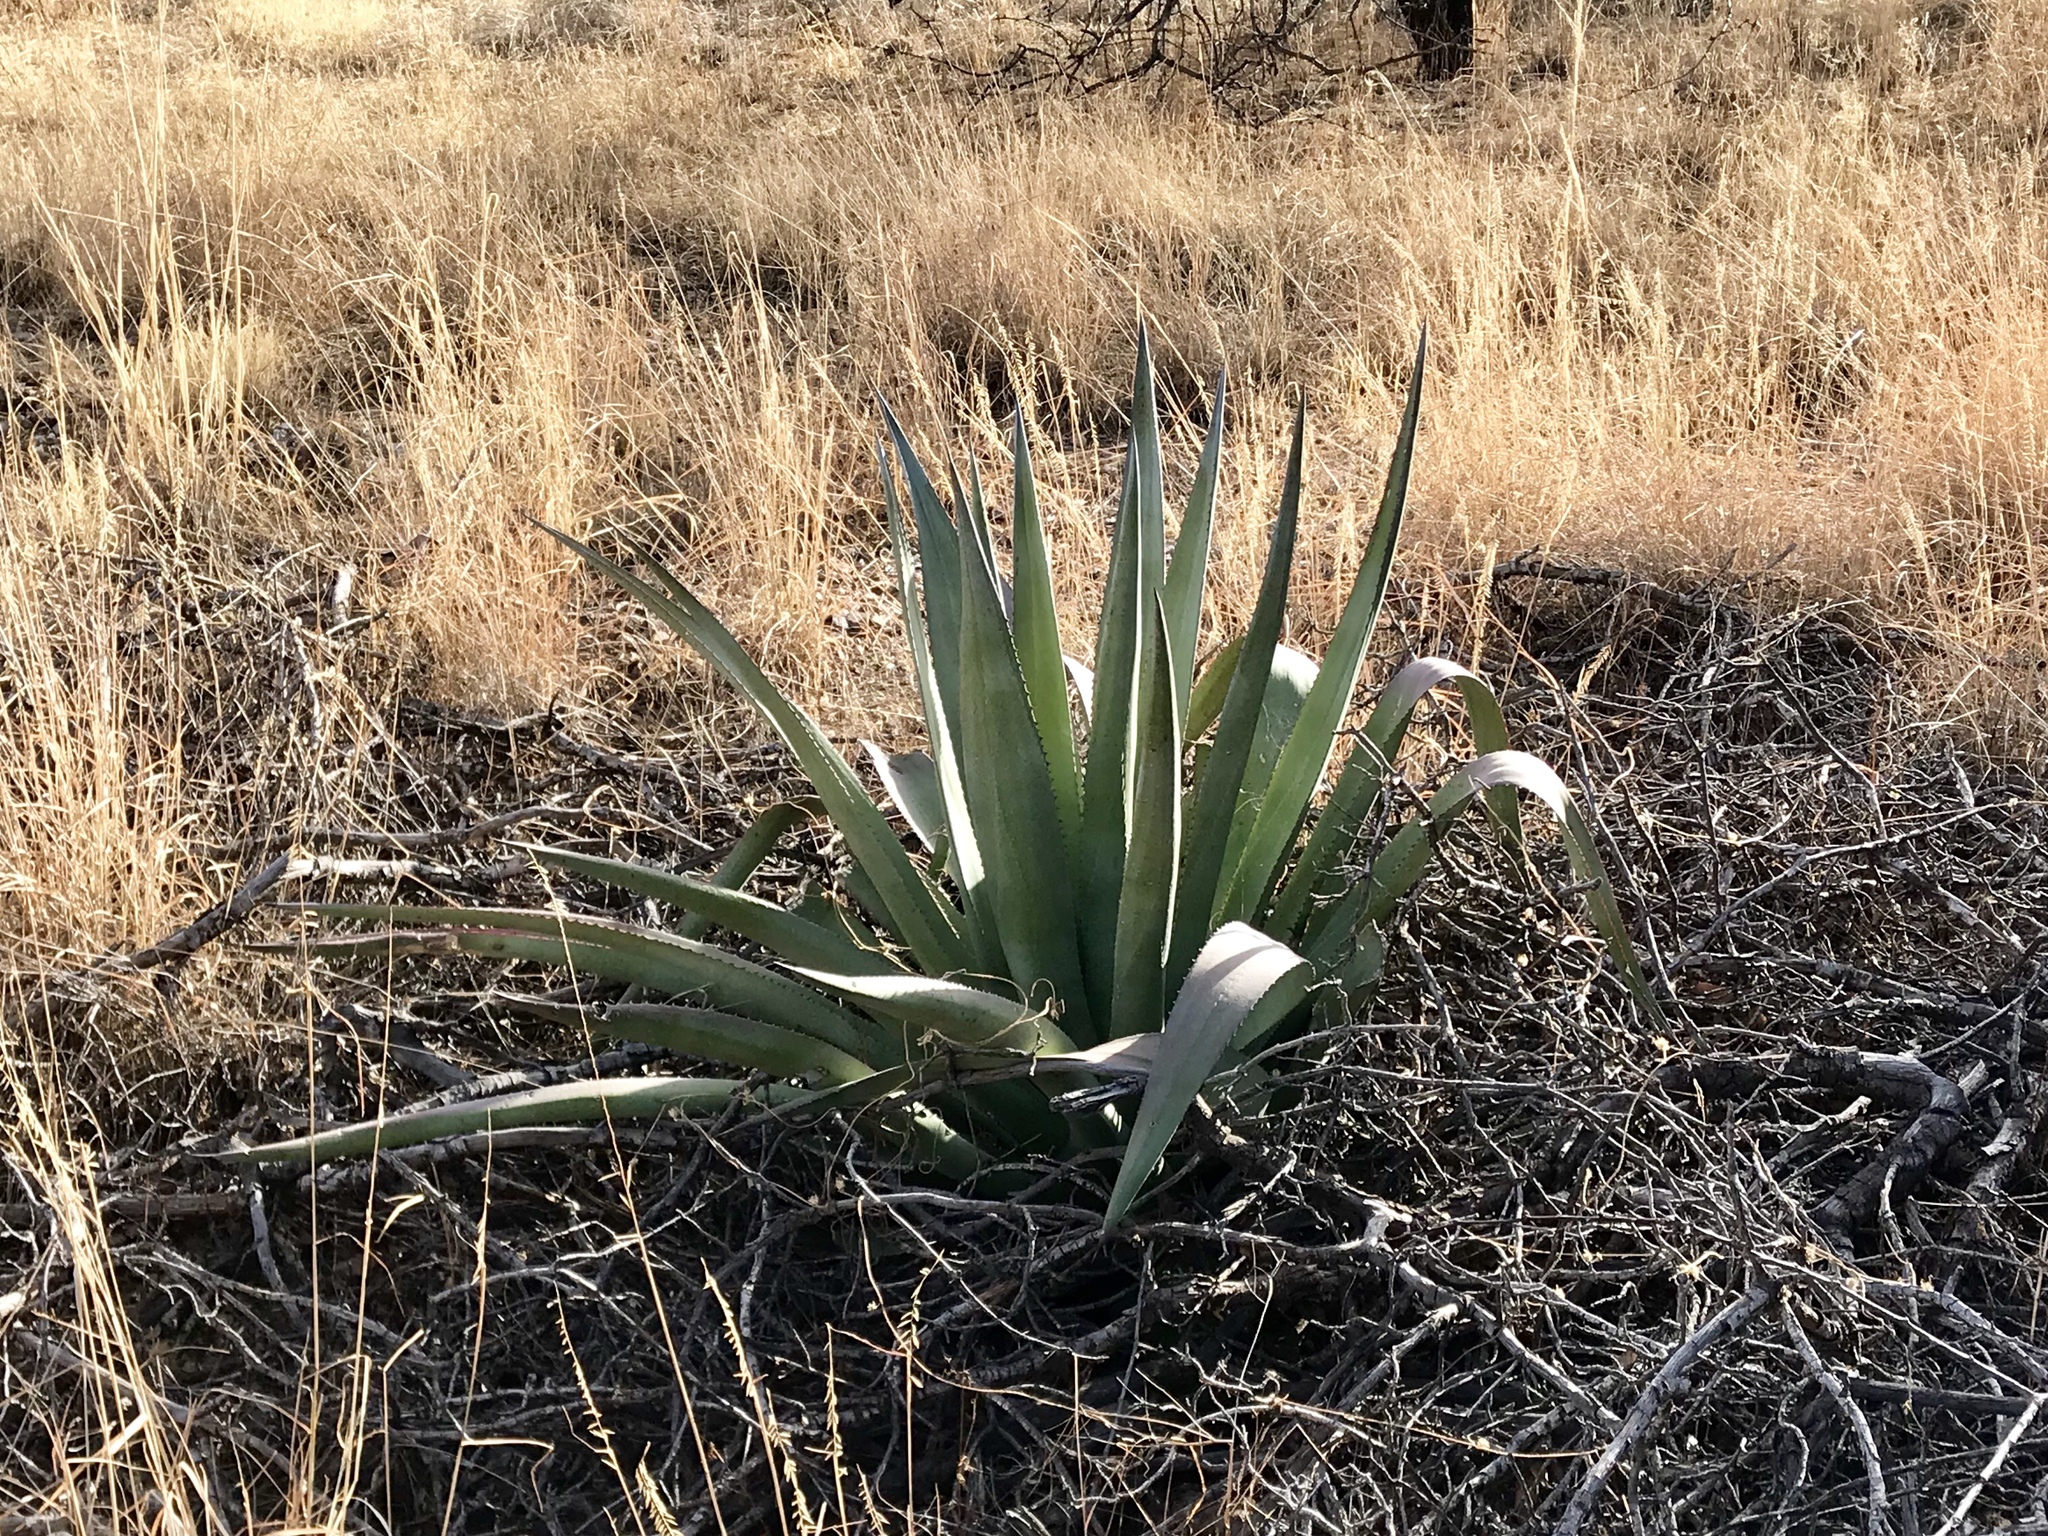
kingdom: Plantae
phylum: Tracheophyta
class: Liliopsida
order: Asparagales
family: Asparagaceae
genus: Agave
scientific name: Agave palmeri
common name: Palmer agave
